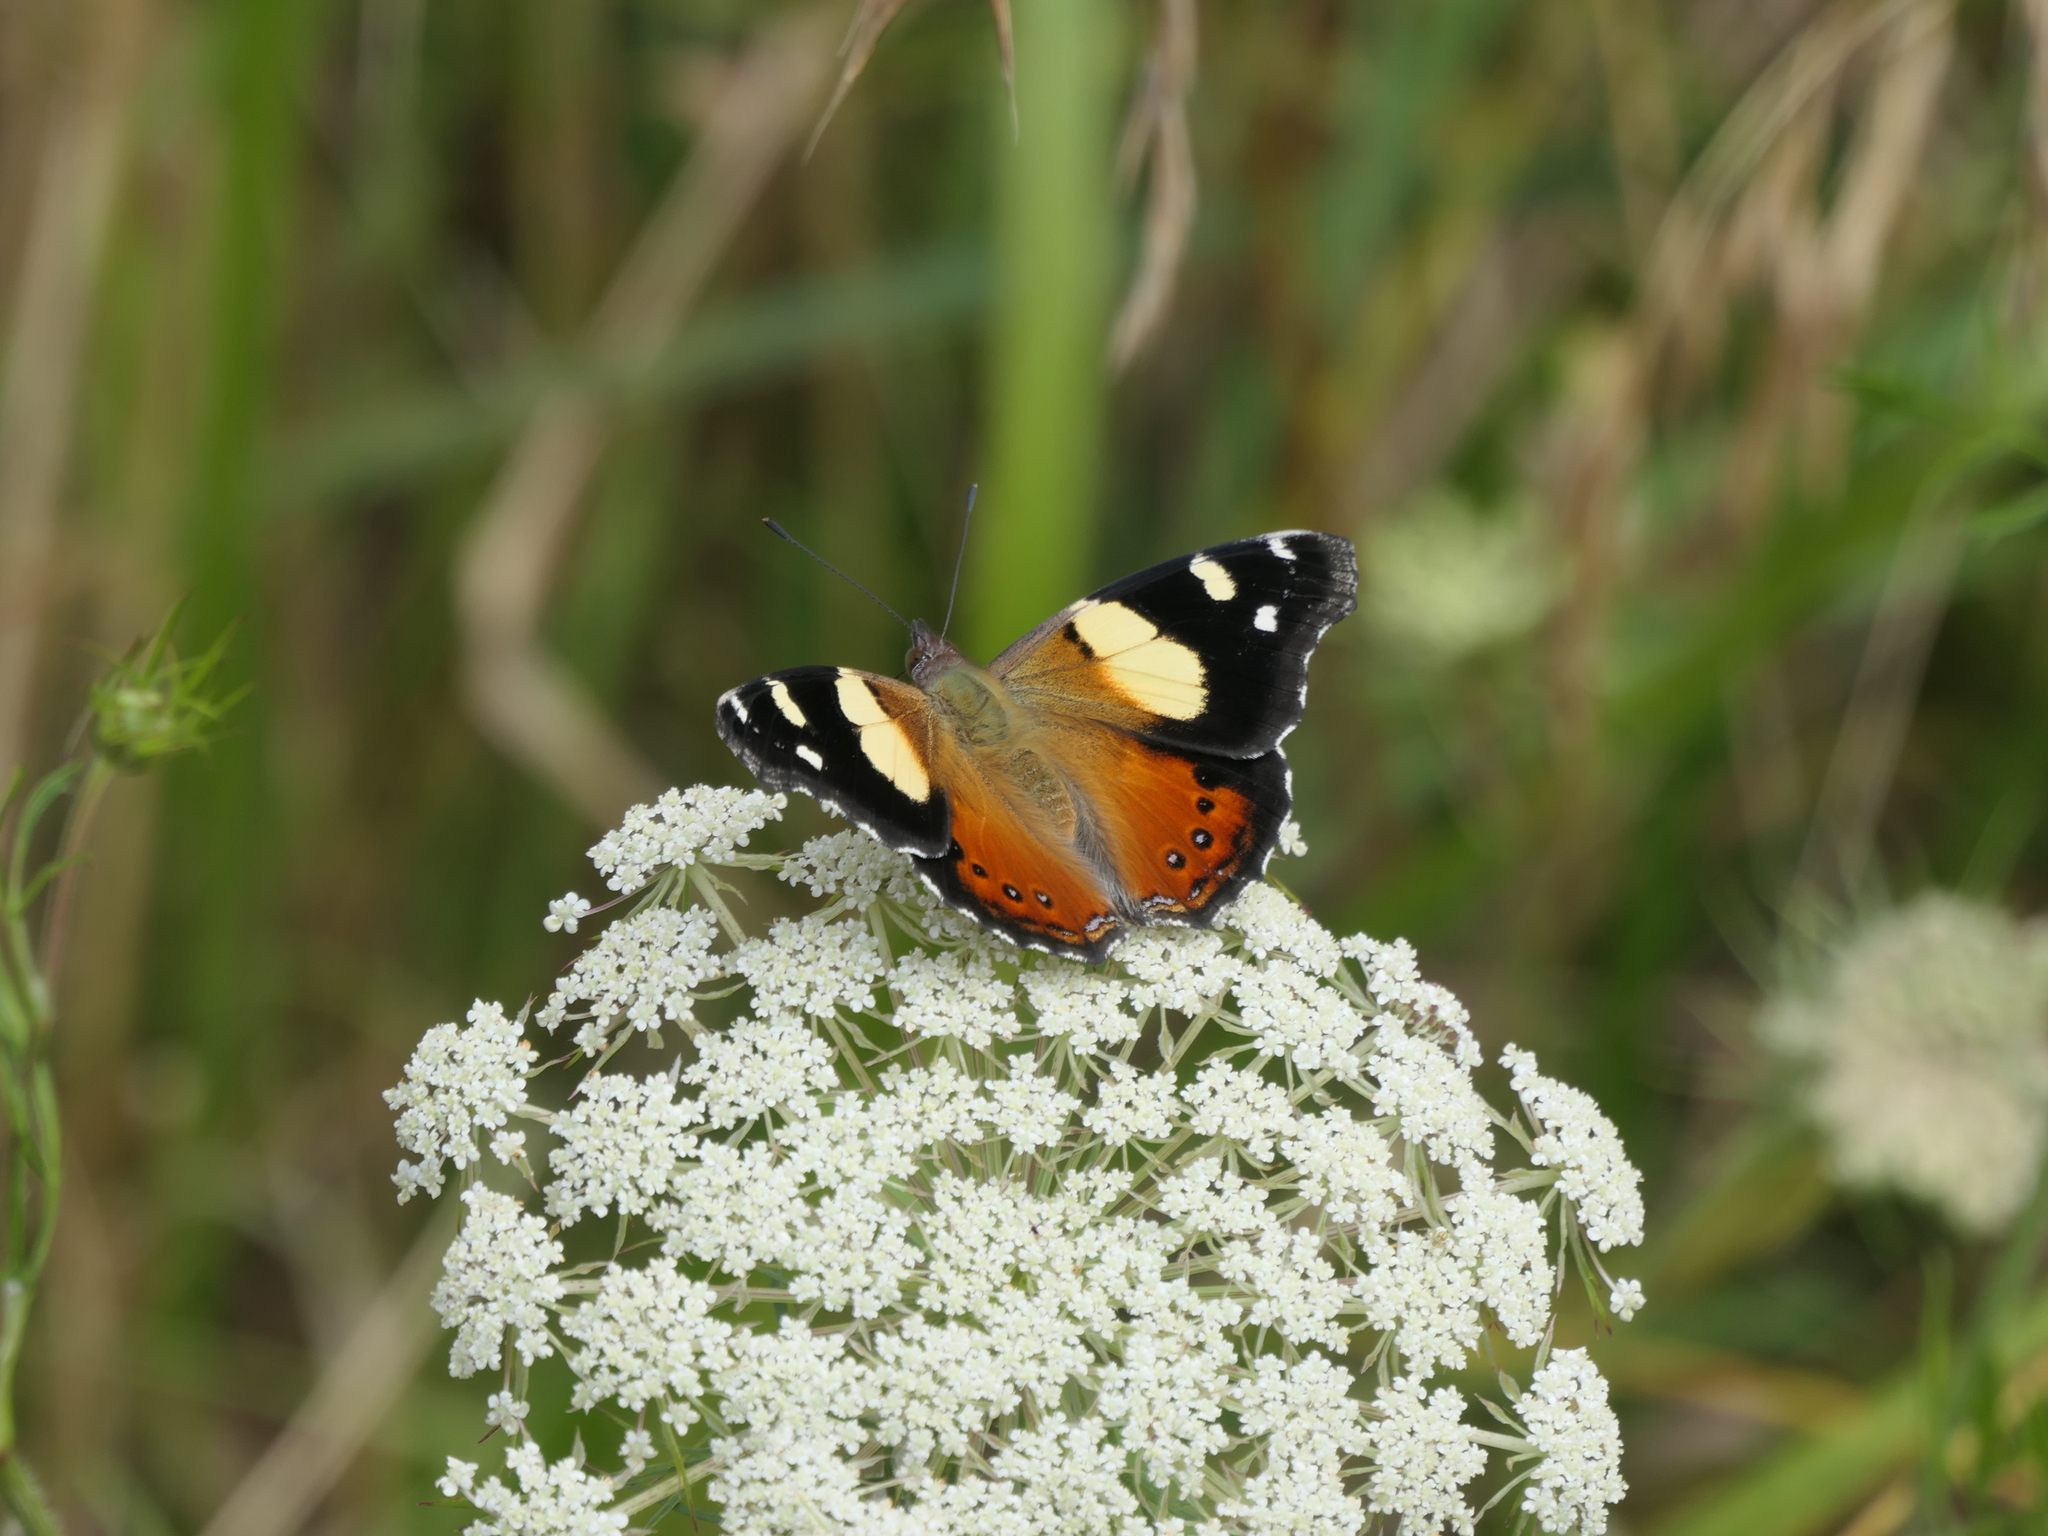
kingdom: Animalia
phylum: Arthropoda
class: Insecta
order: Lepidoptera
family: Nymphalidae
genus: Vanessa
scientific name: Vanessa itea
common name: Yellow admiral
